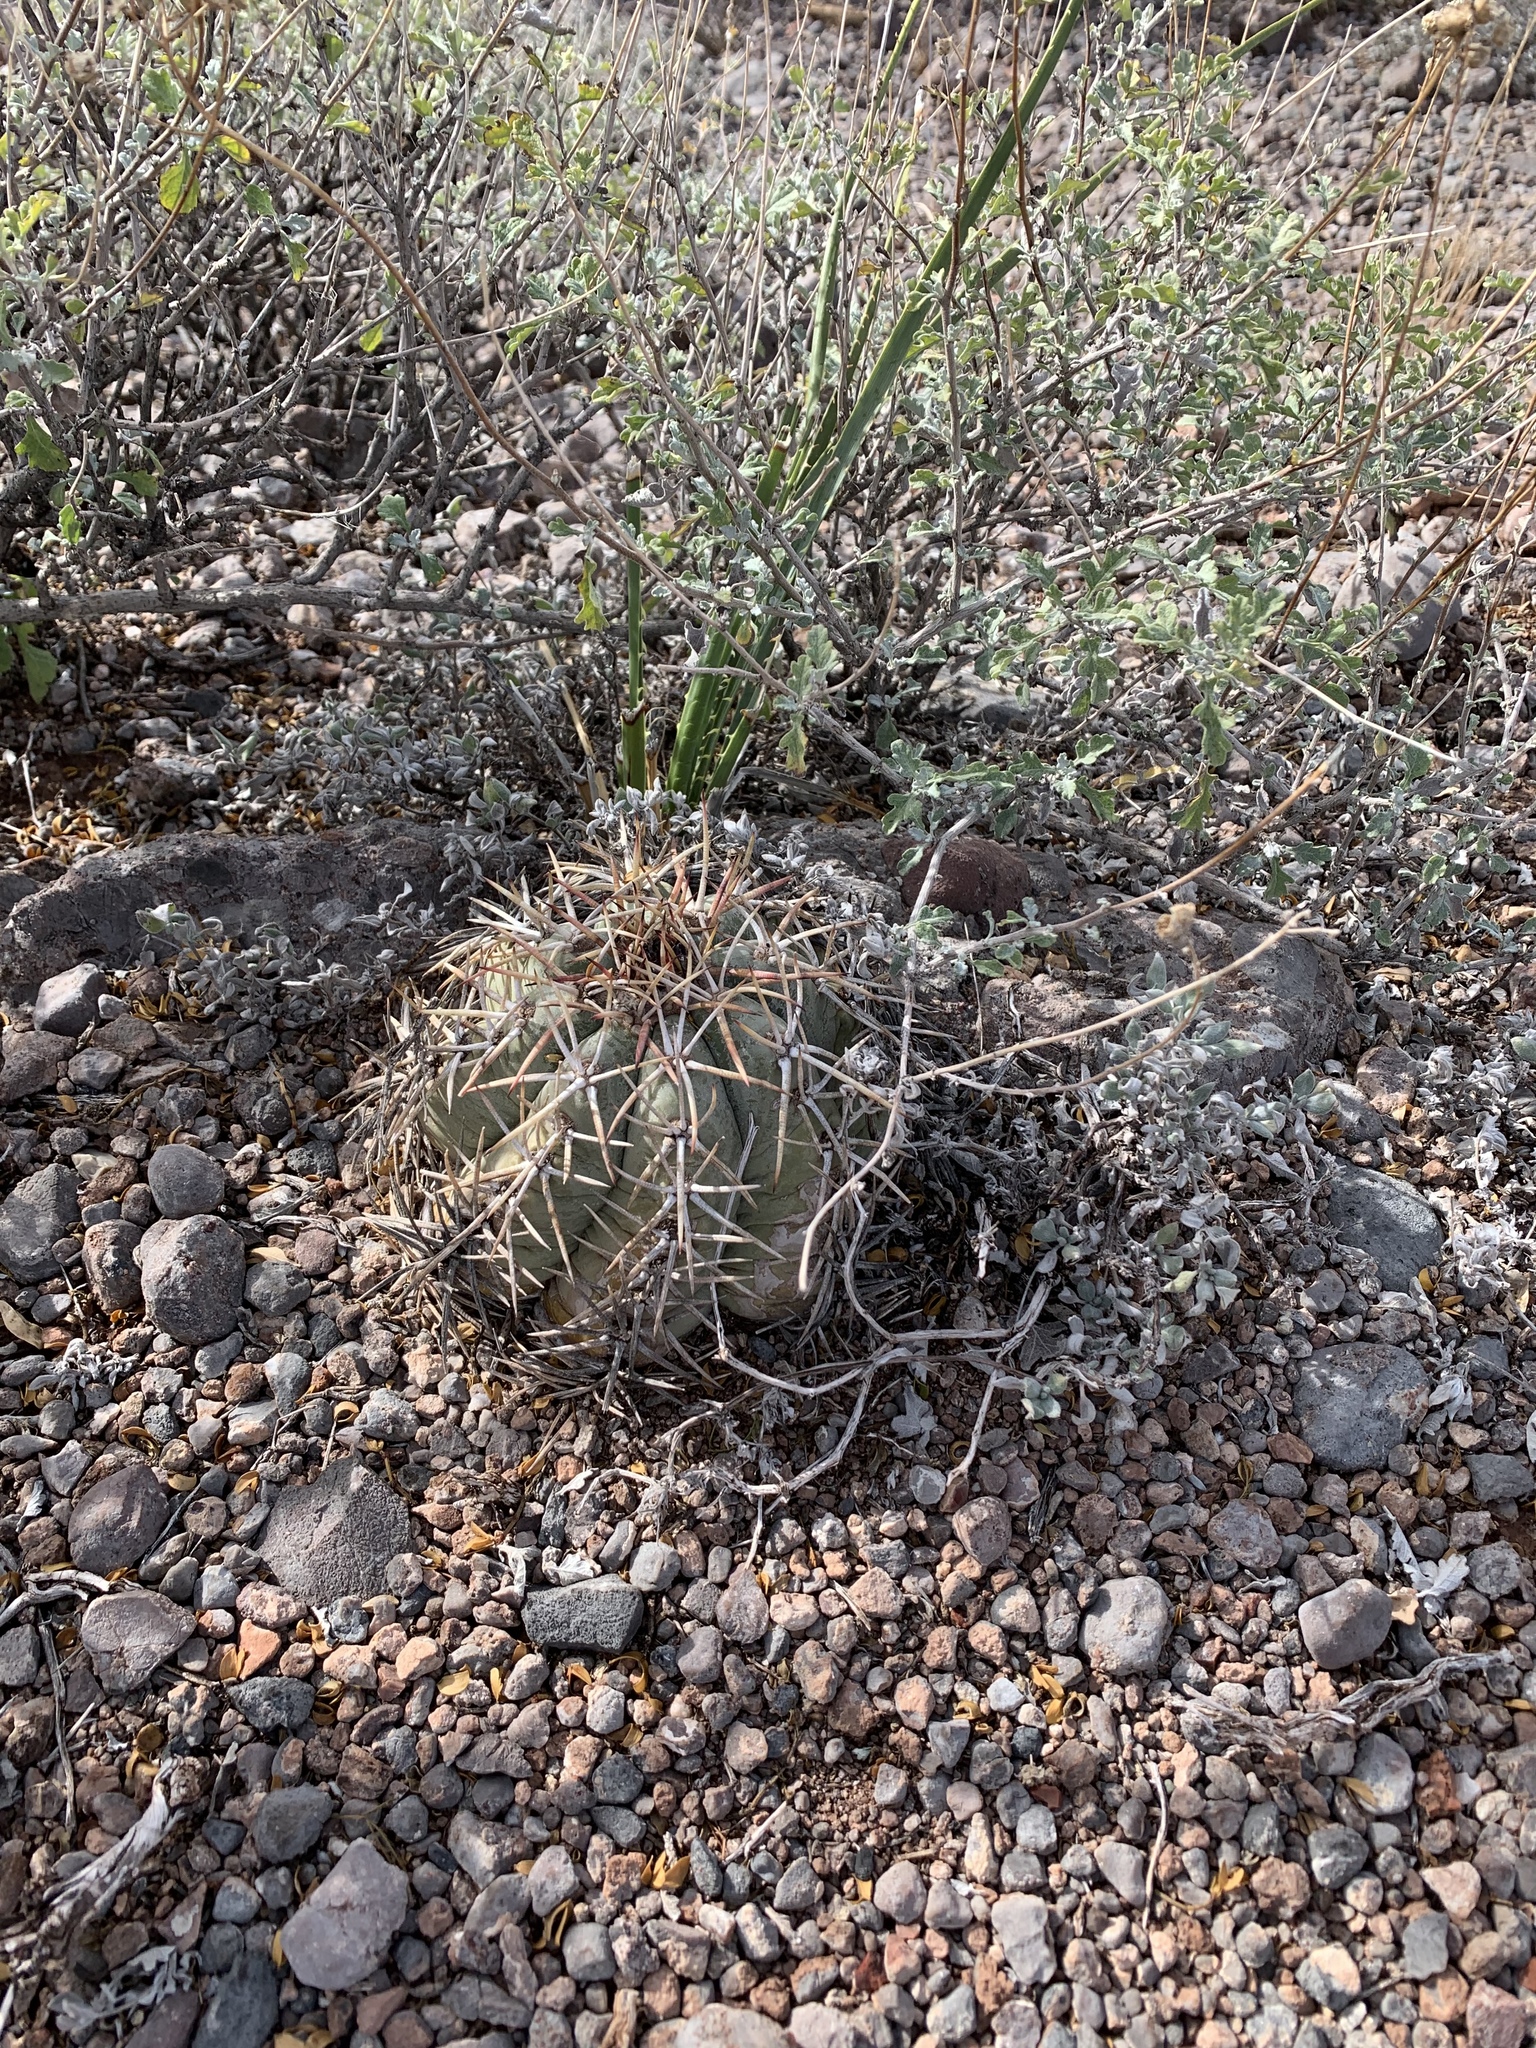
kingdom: Plantae
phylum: Tracheophyta
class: Magnoliopsida
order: Caryophyllales
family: Cactaceae
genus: Echinocactus
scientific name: Echinocactus horizonthalonius
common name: Devilshead
